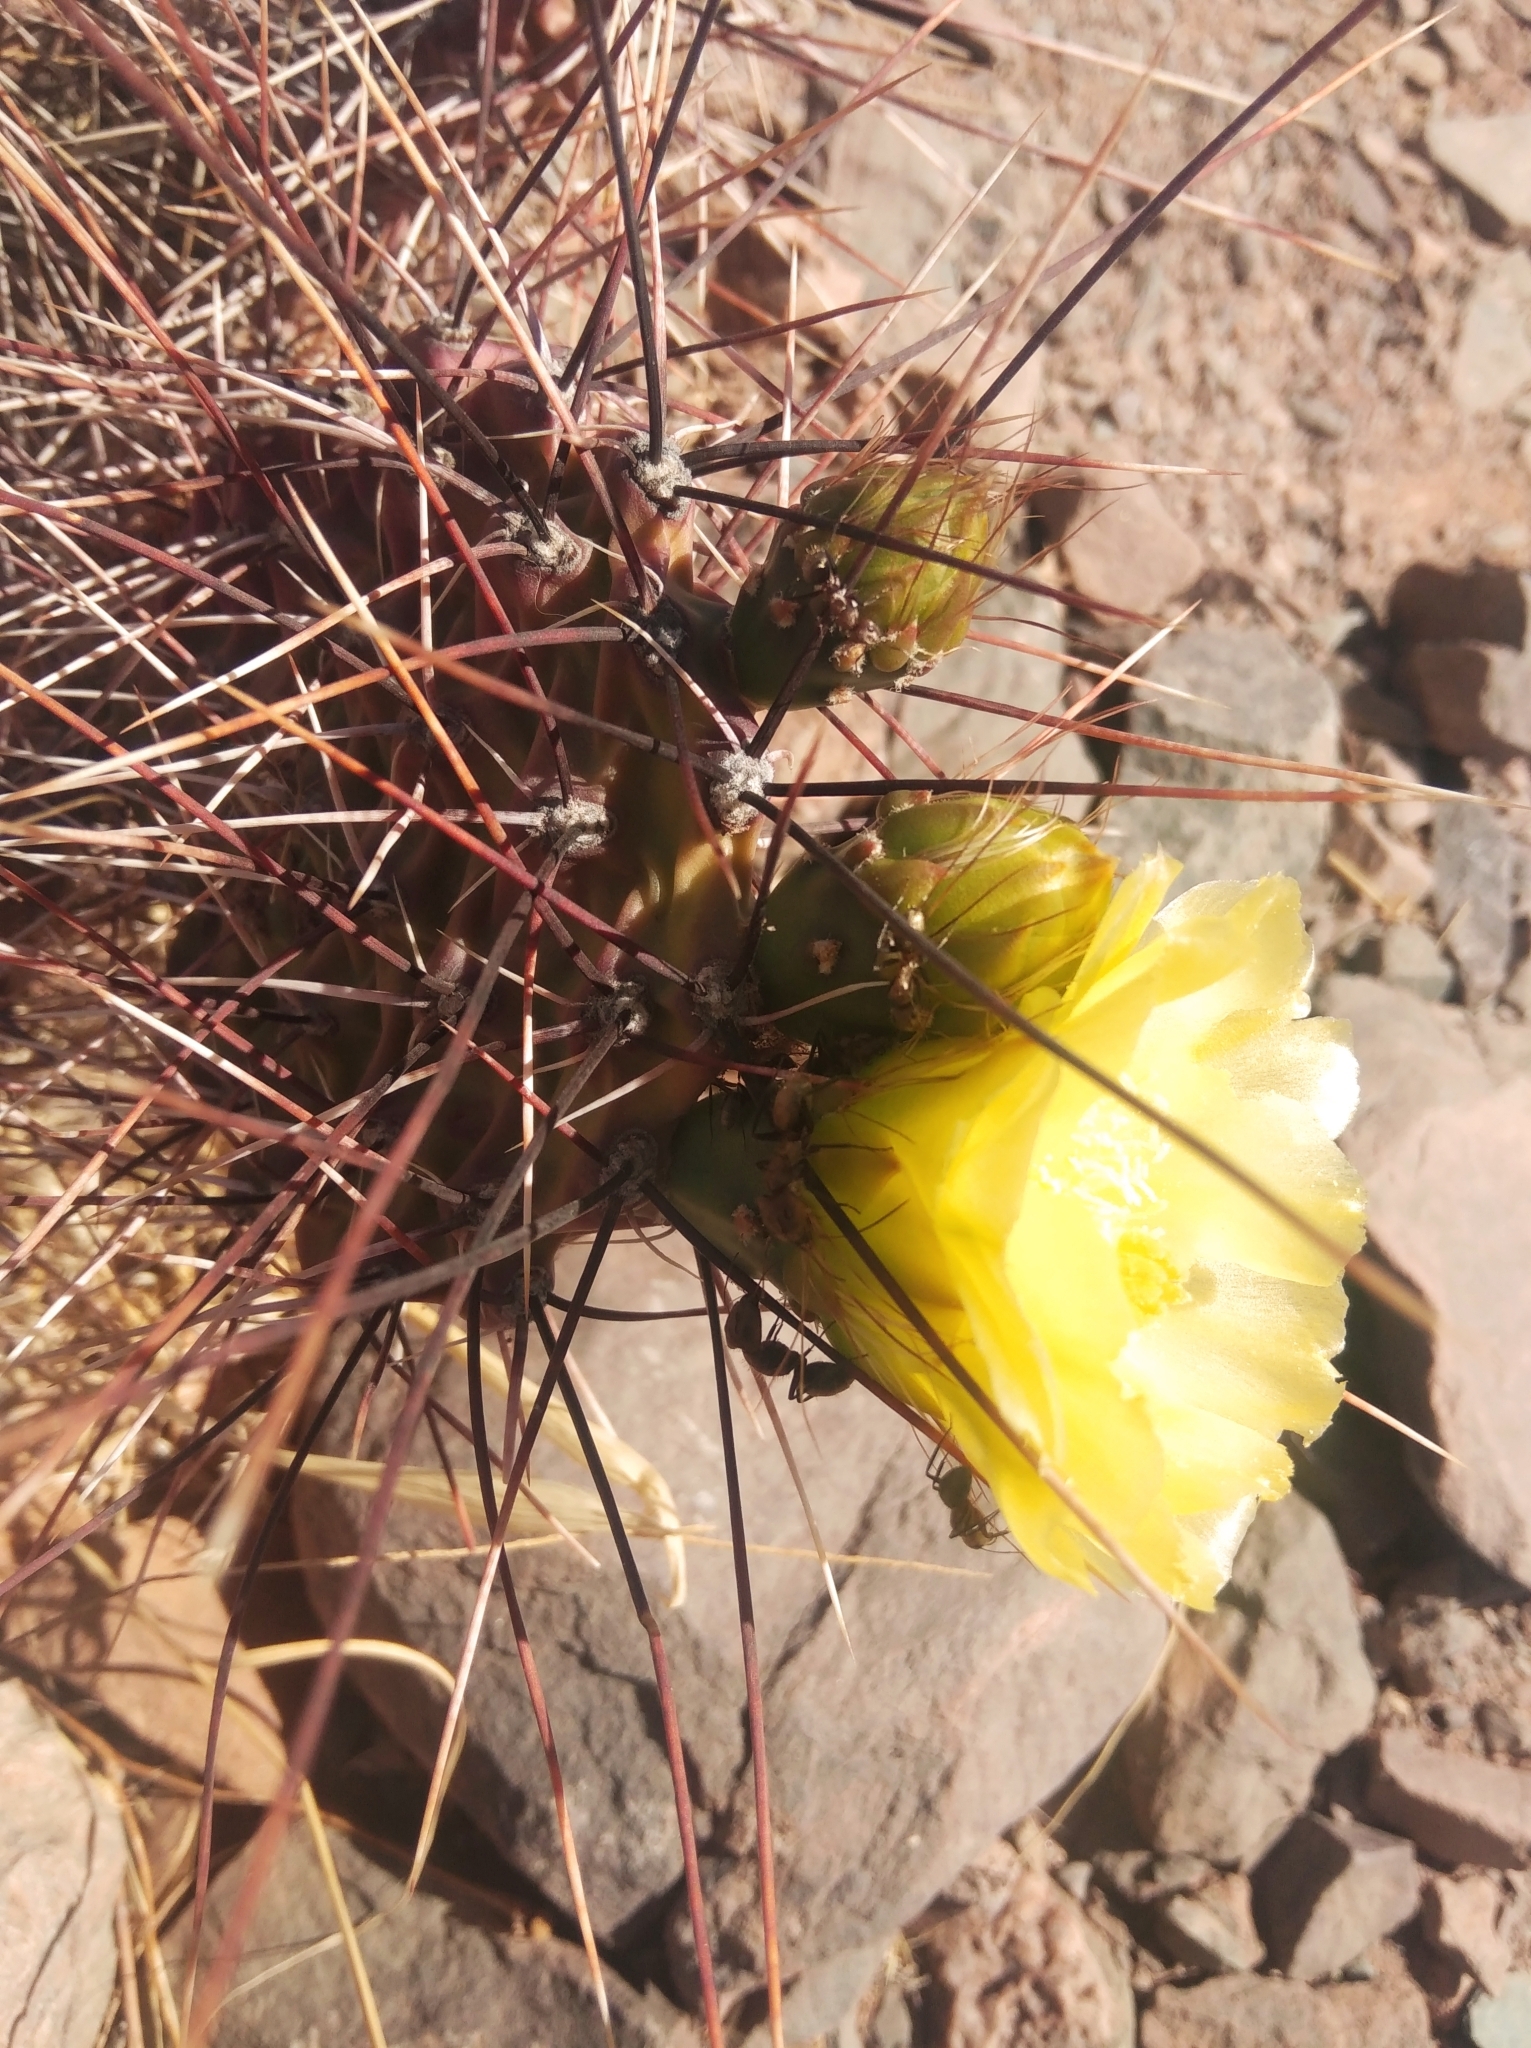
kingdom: Plantae
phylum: Tracheophyta
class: Magnoliopsida
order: Caryophyllales
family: Cactaceae
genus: Opuntia
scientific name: Opuntia sulphurea
